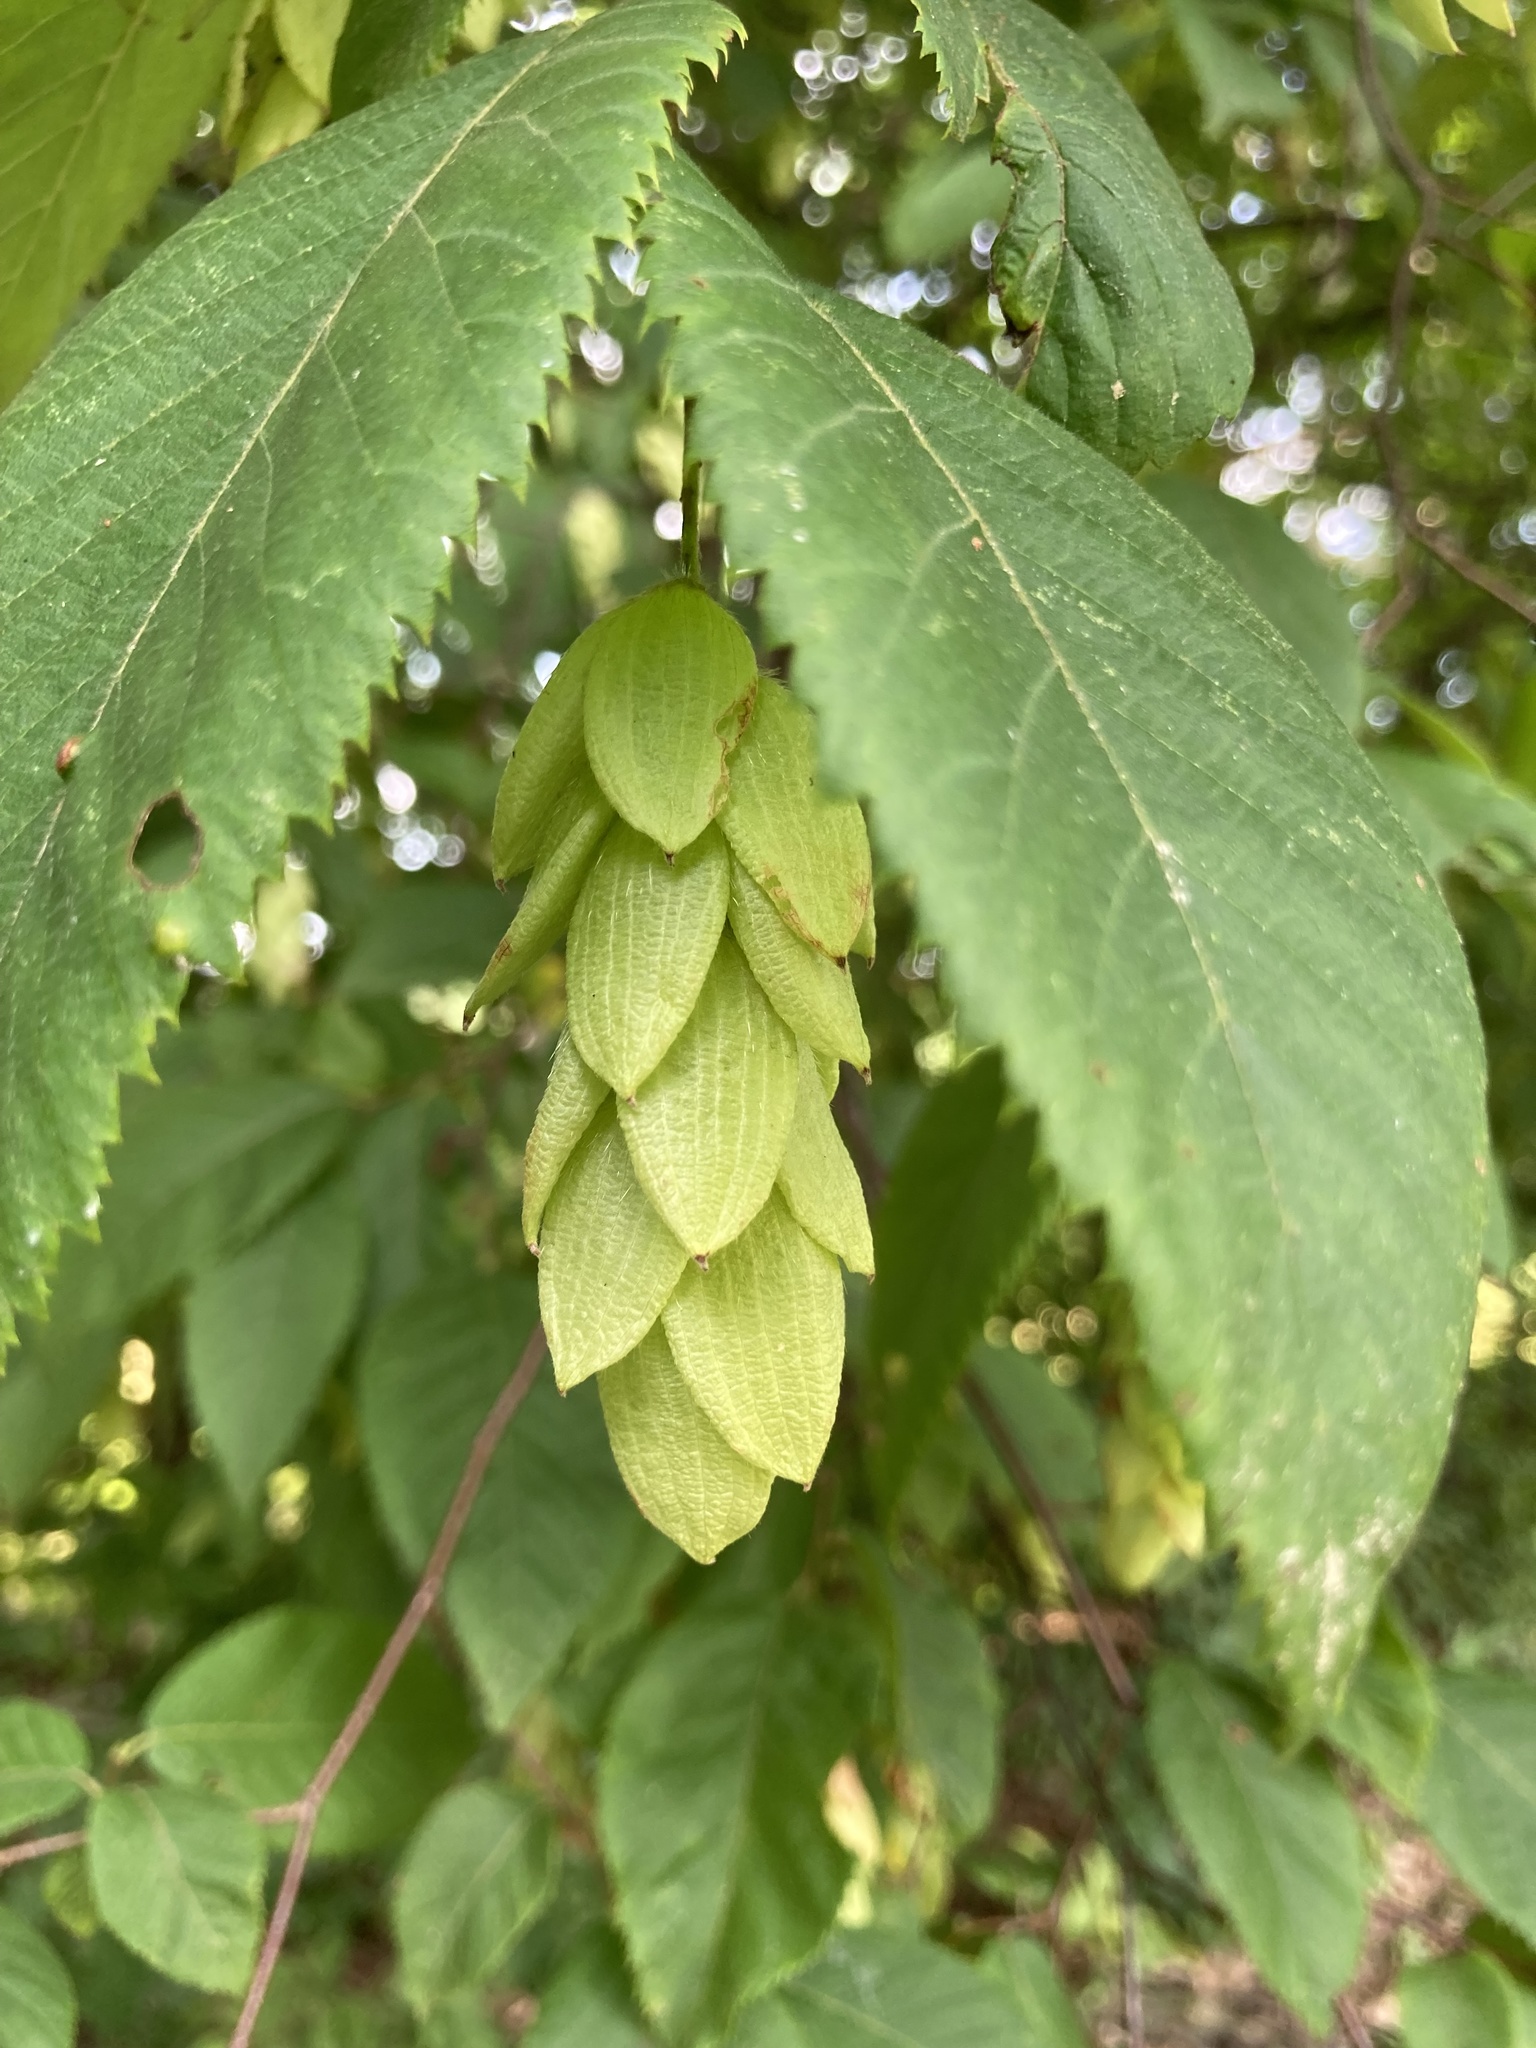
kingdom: Plantae
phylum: Tracheophyta
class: Magnoliopsida
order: Fagales
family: Betulaceae
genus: Ostrya
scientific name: Ostrya virginiana
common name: Ironwood
